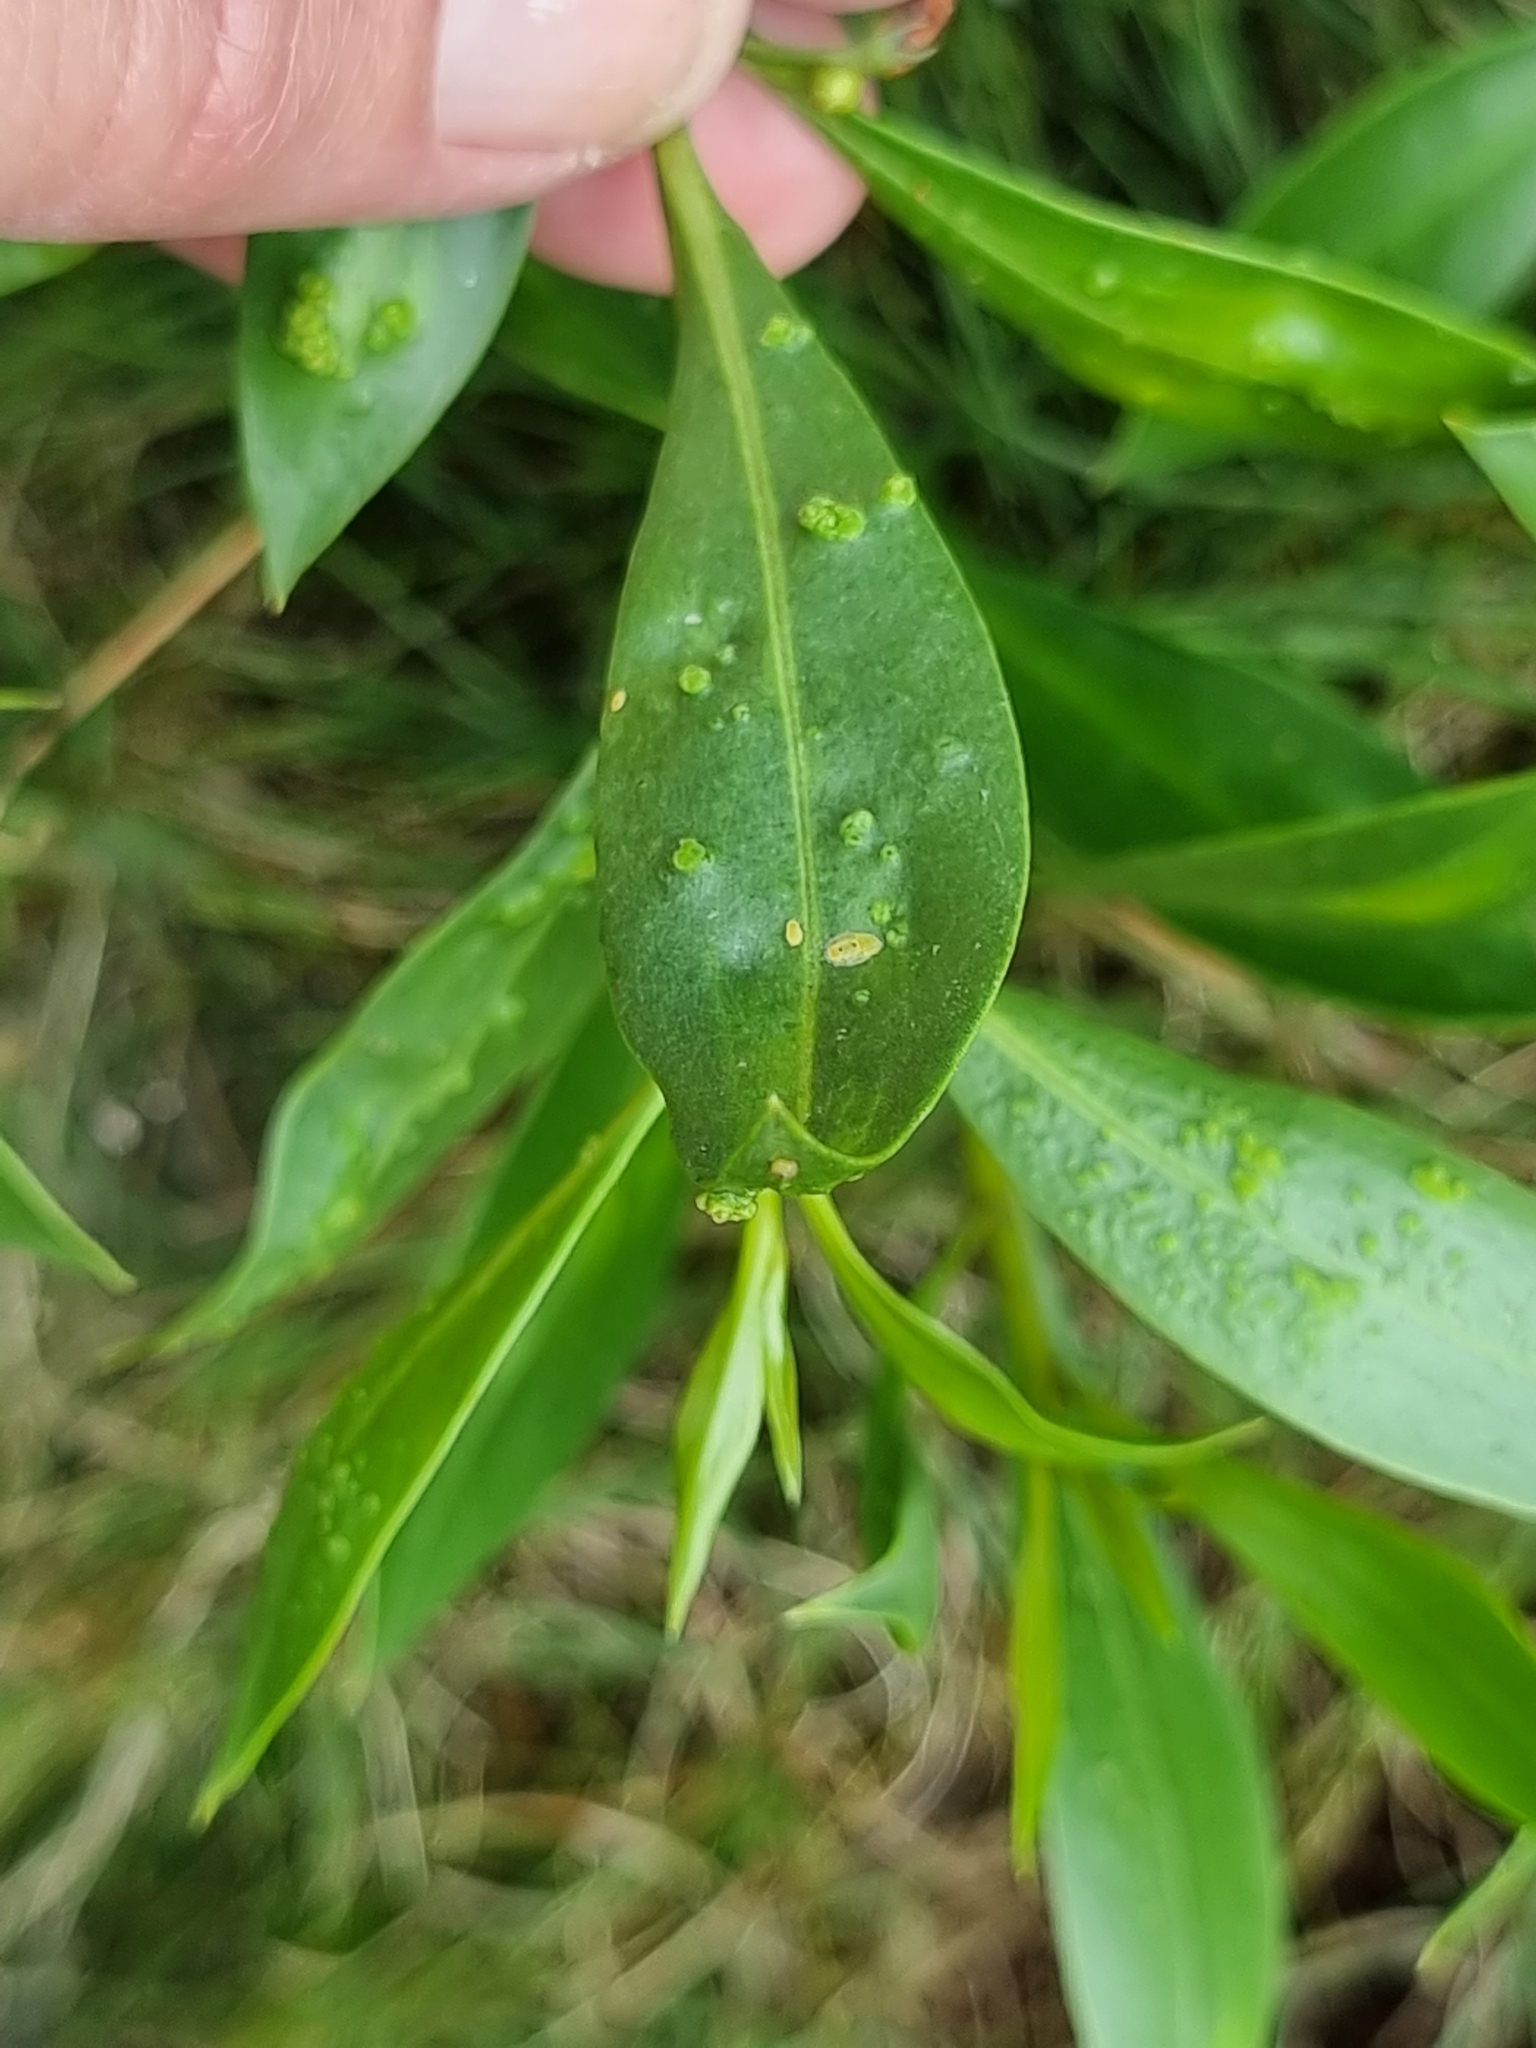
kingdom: Plantae
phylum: Tracheophyta
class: Magnoliopsida
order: Lamiales
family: Scrophulariaceae
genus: Myoporum
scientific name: Myoporum acuminatum
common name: Pointed boobialla
